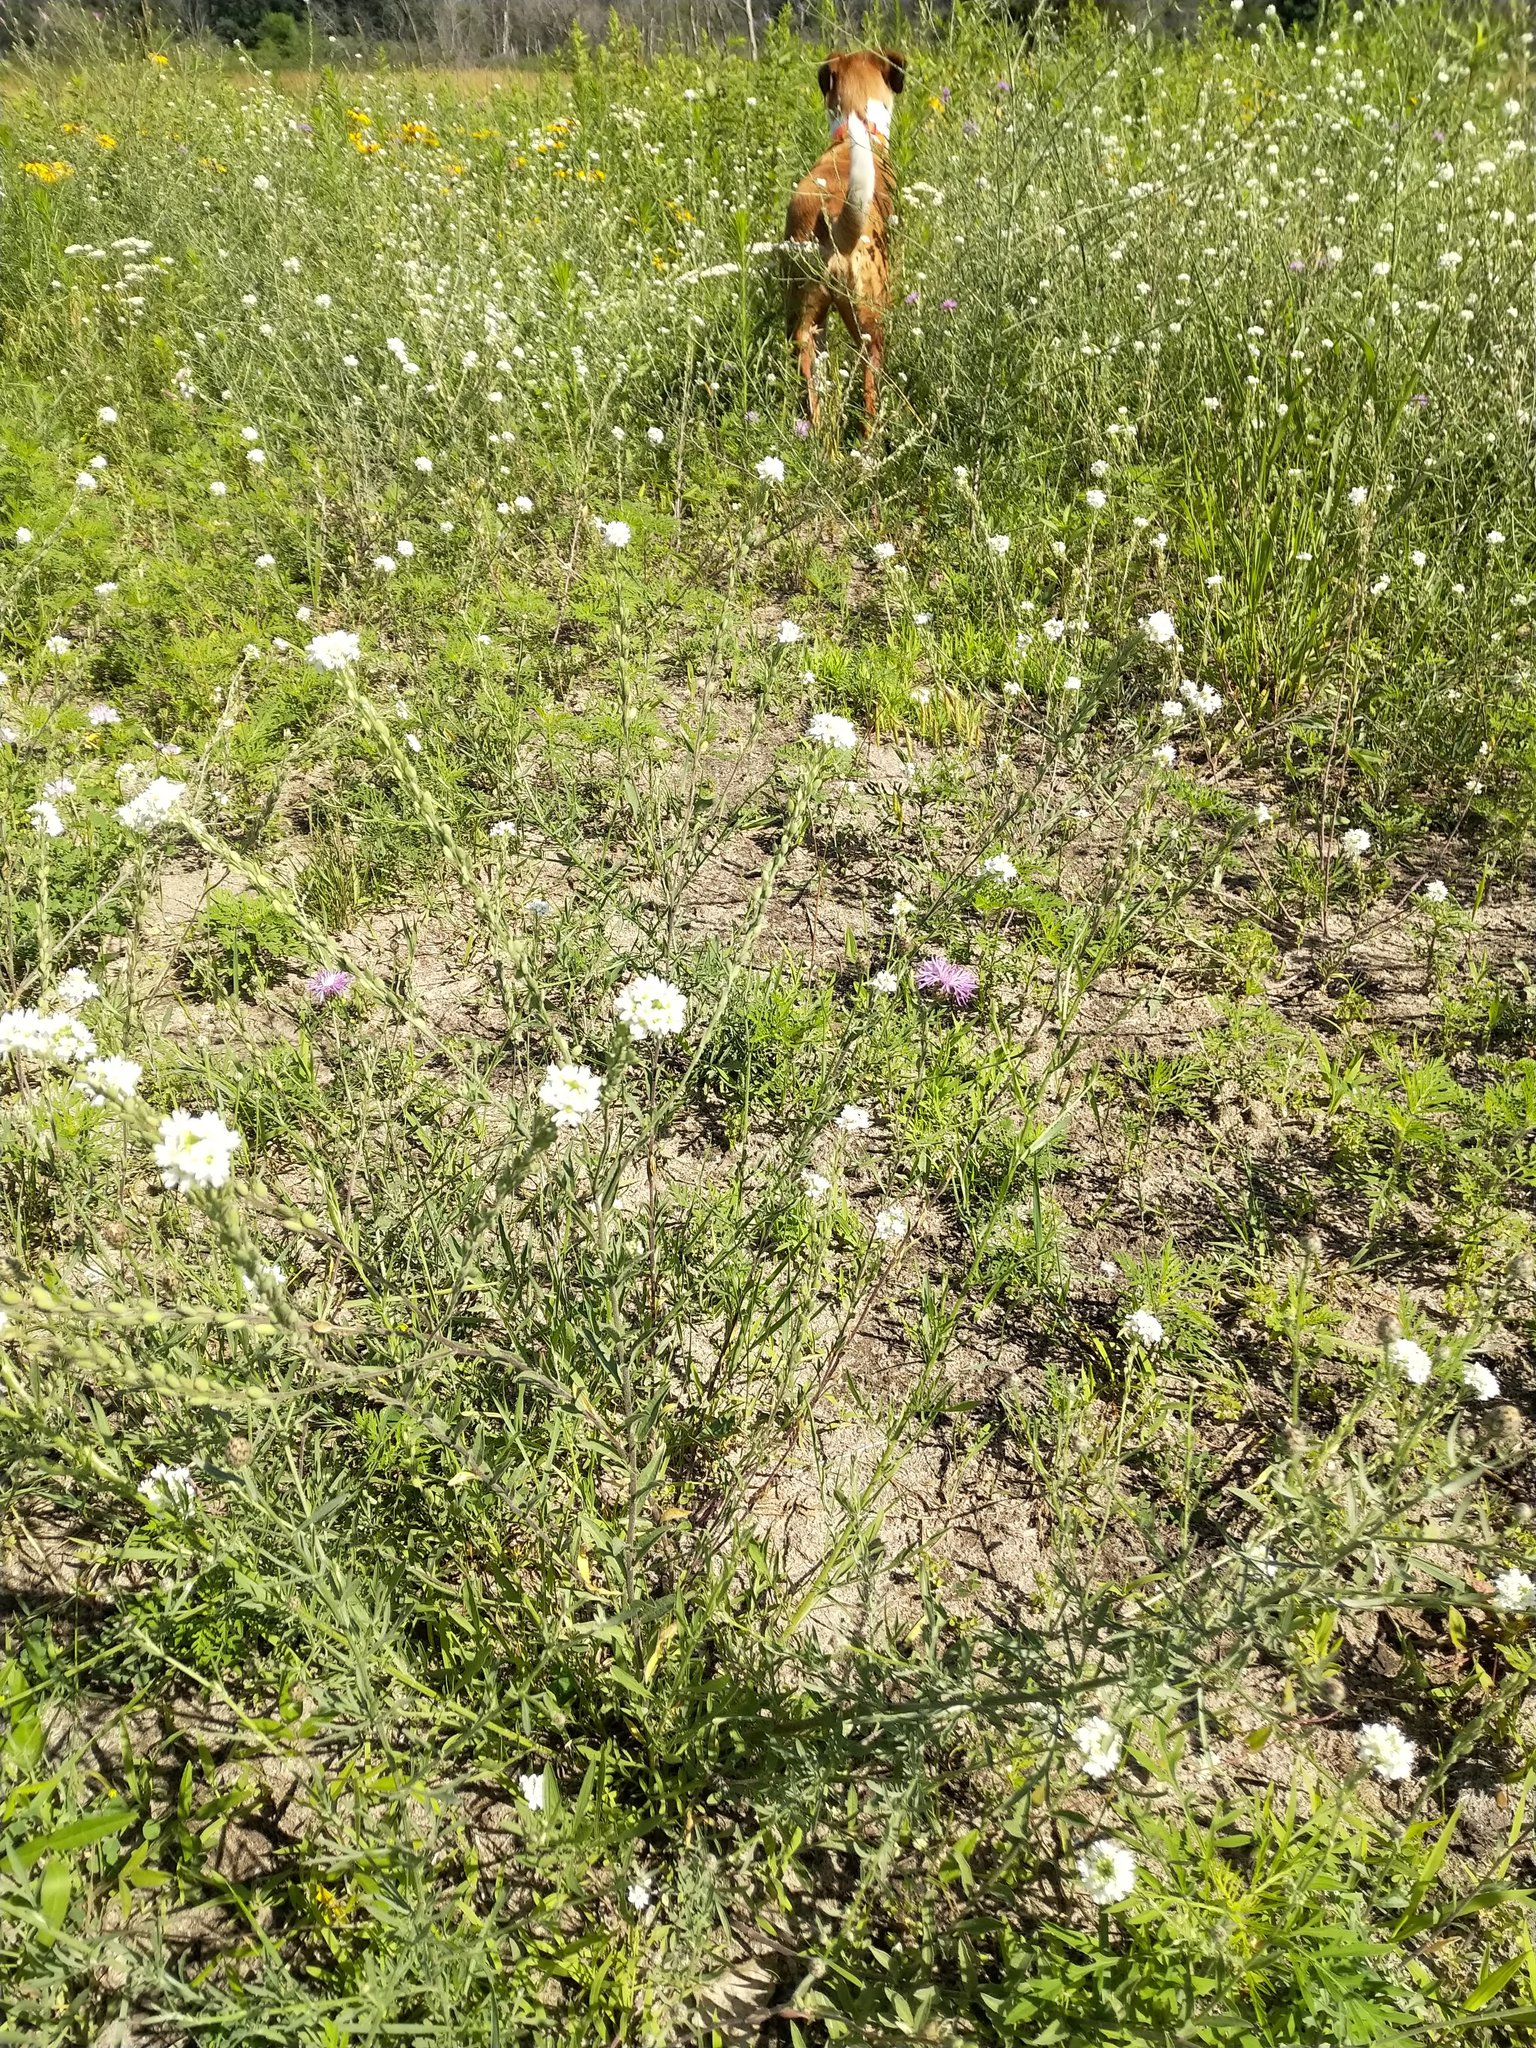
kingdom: Plantae
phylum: Tracheophyta
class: Magnoliopsida
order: Brassicales
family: Brassicaceae
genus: Berteroa
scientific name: Berteroa incana
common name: Hoary alison
